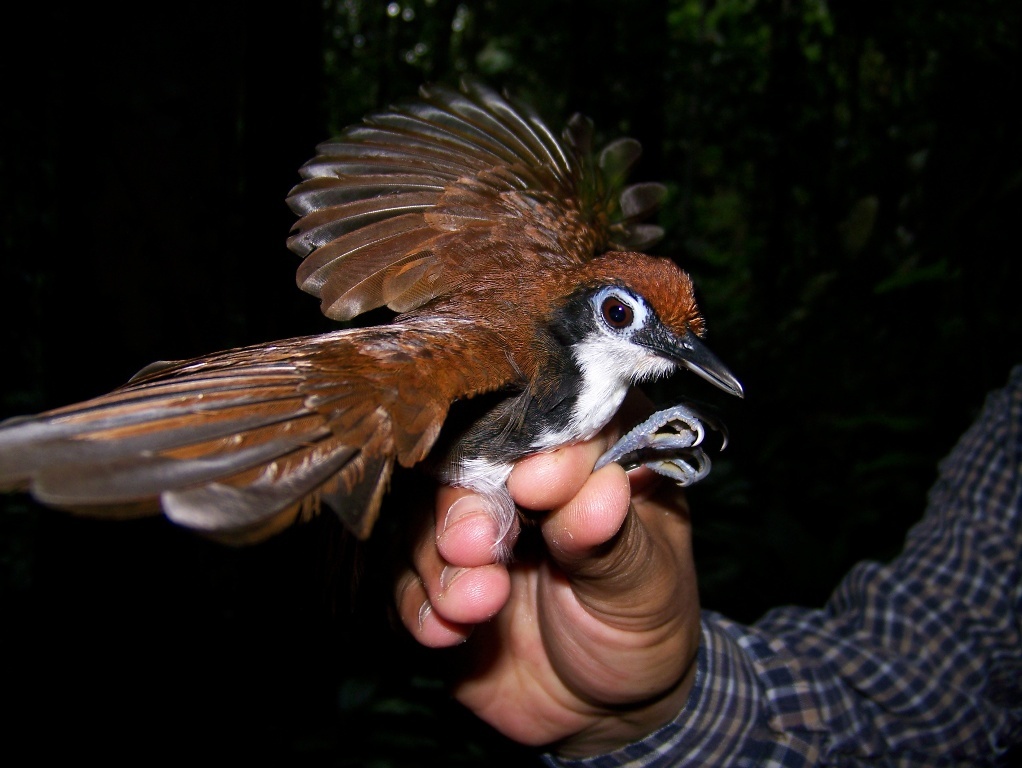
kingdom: Animalia
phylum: Chordata
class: Aves
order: Passeriformes
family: Thamnophilidae
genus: Gymnopithys
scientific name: Gymnopithys leucaspis
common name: White-cheeked antbird
